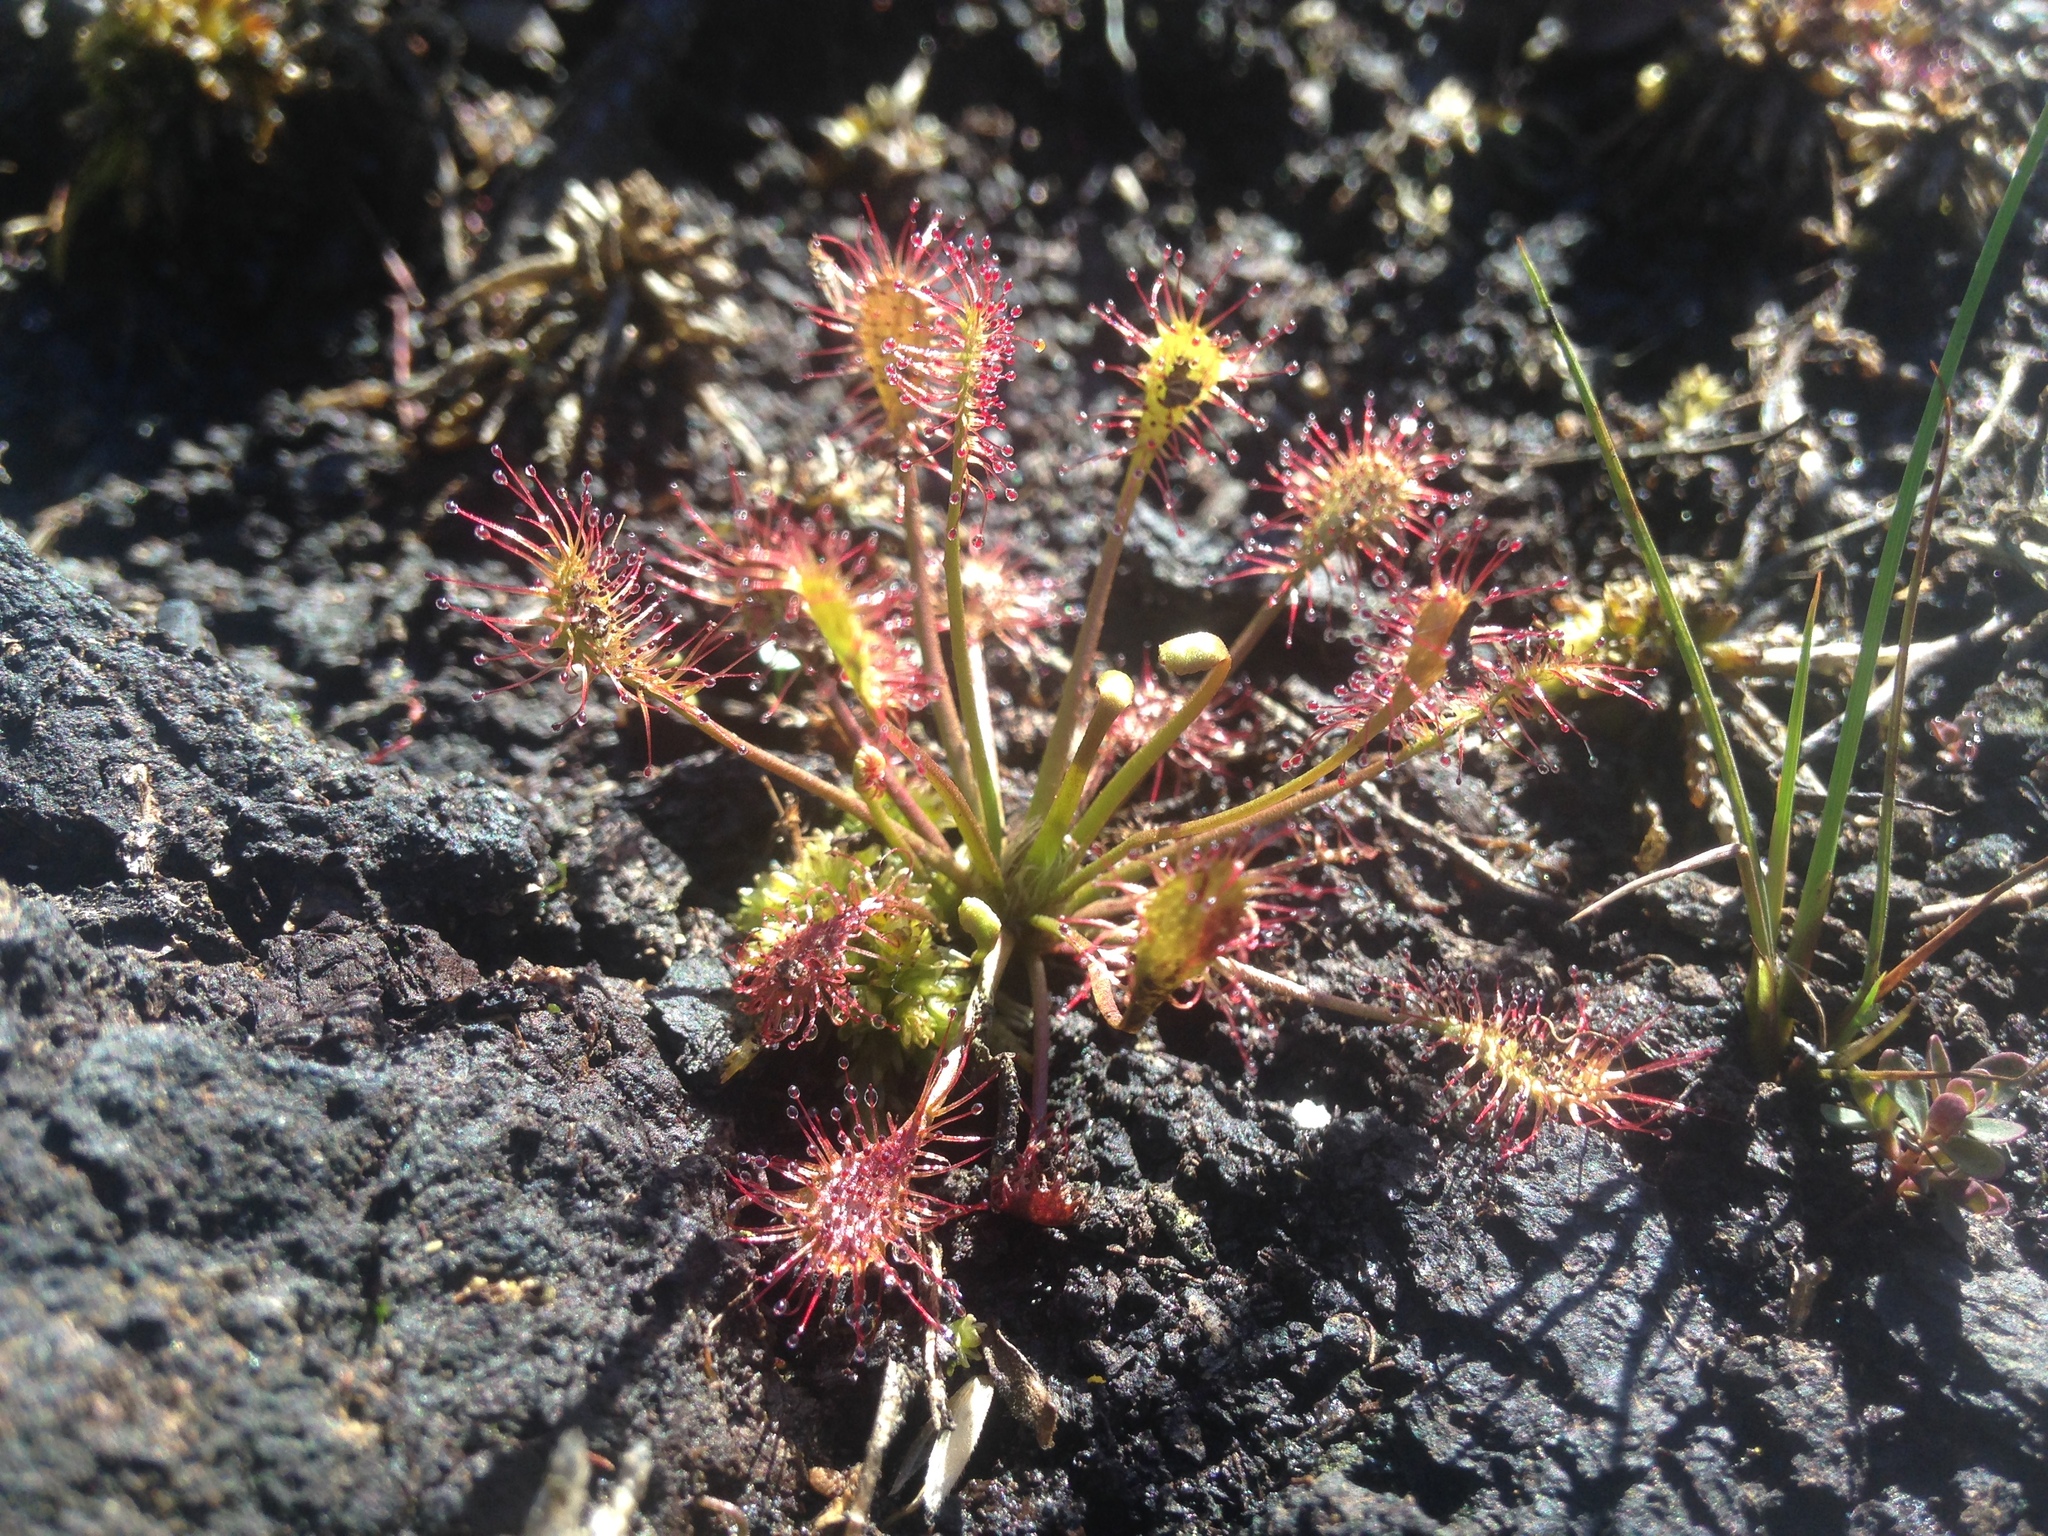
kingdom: Plantae
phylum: Tracheophyta
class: Magnoliopsida
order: Caryophyllales
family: Droseraceae
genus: Drosera
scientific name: Drosera intermedia
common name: Oblong-leaved sundew
